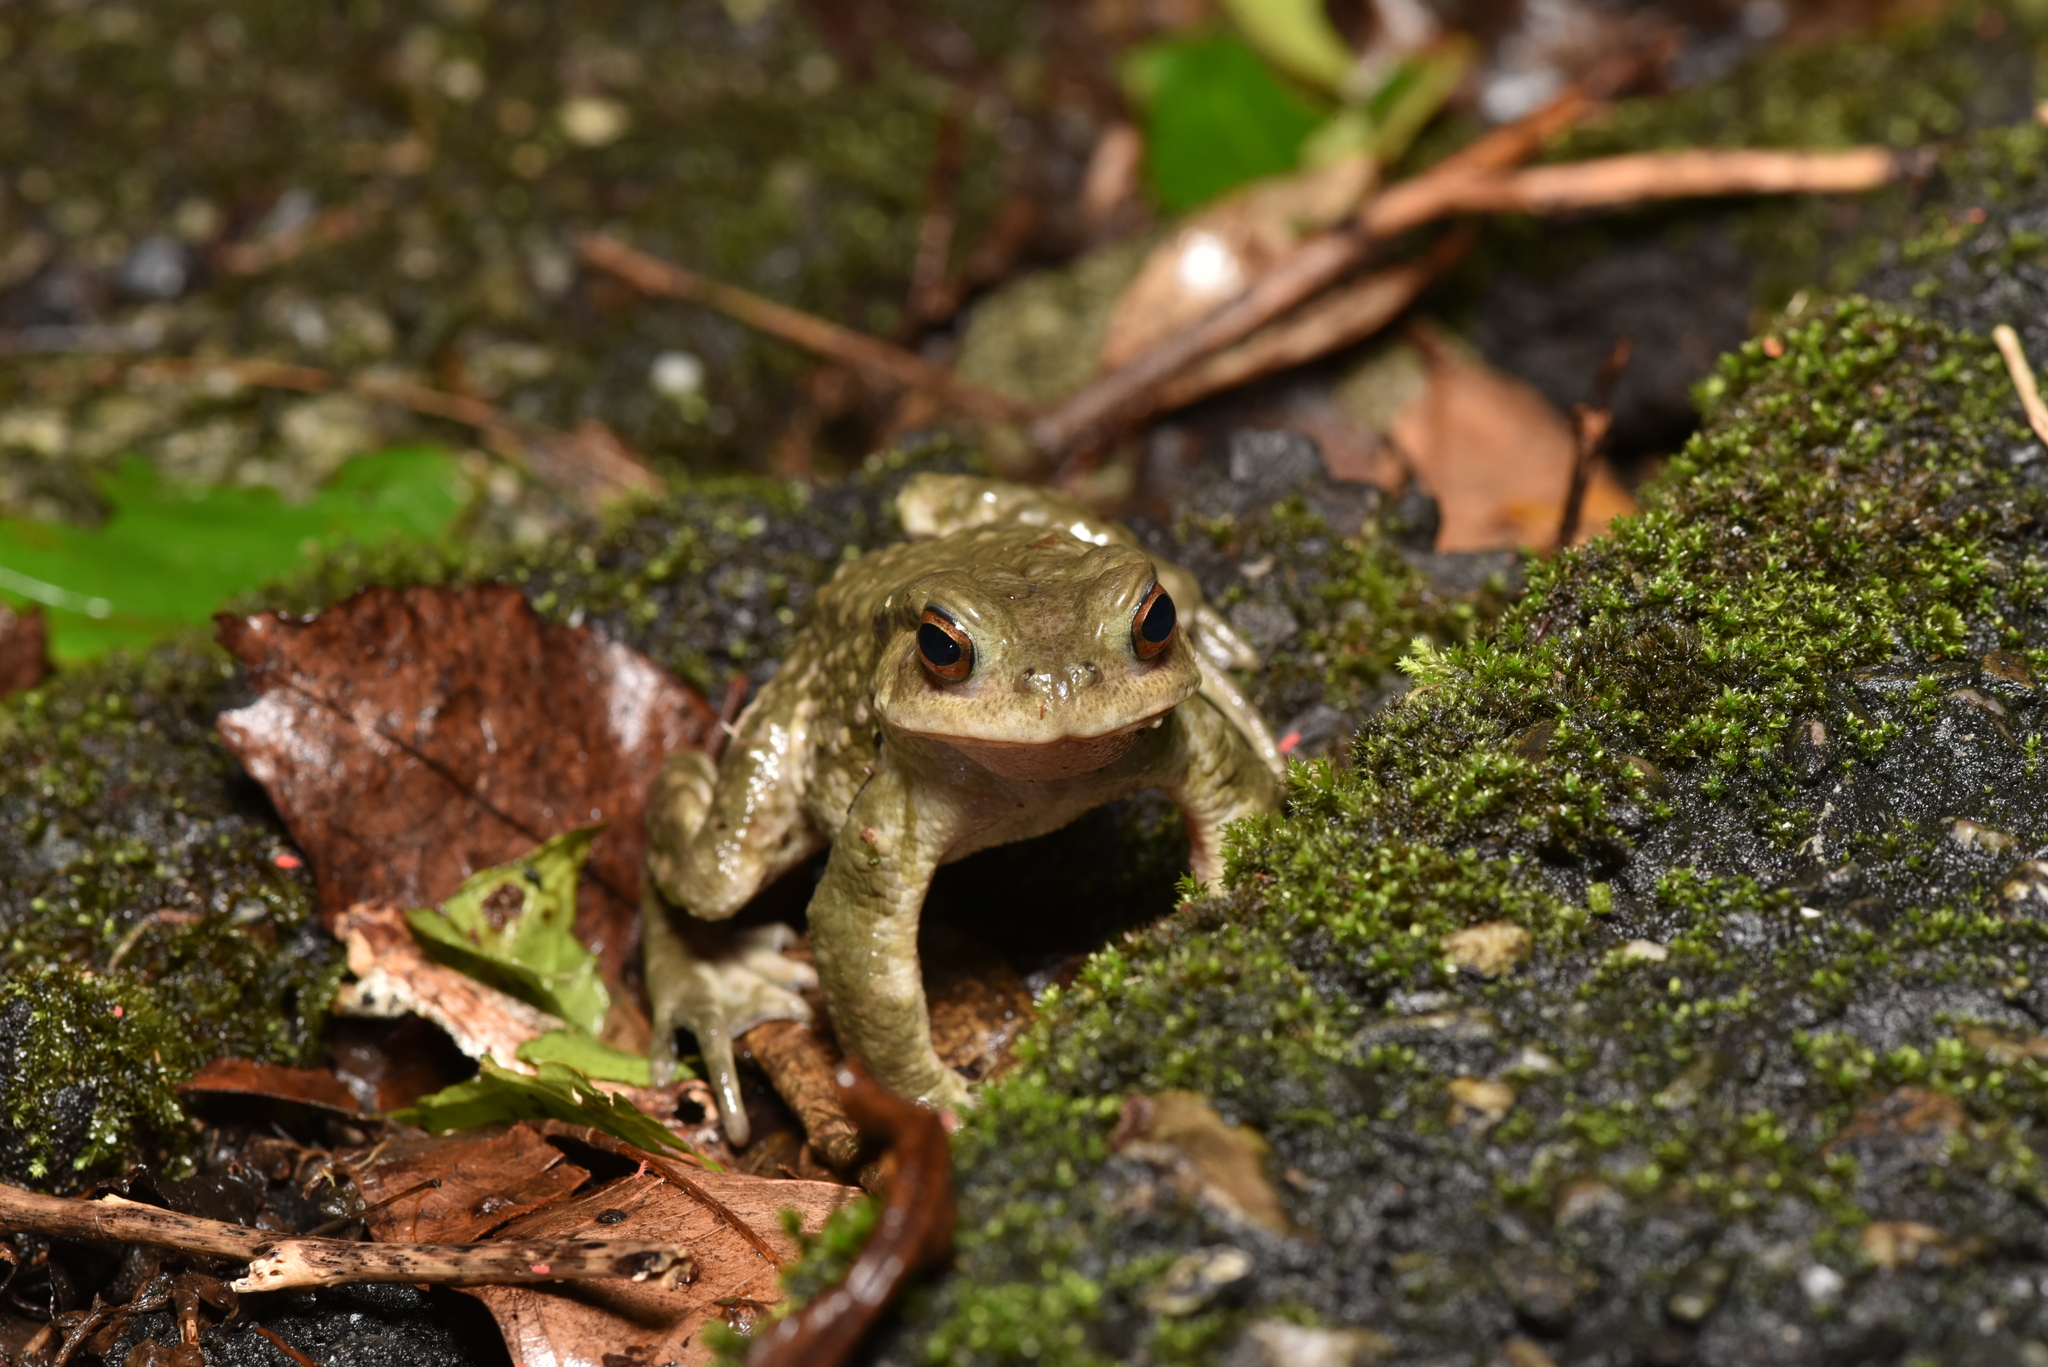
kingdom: Animalia
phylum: Chordata
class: Amphibia
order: Anura
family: Bufonidae
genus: Bufo
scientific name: Bufo bankorensis
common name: Bankor toad
